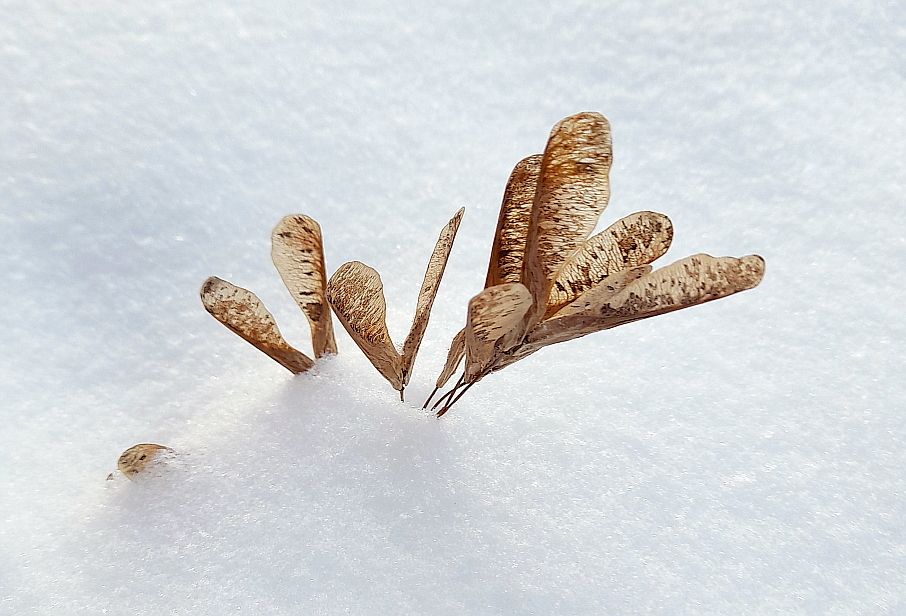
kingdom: Plantae
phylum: Tracheophyta
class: Magnoliopsida
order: Sapindales
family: Sapindaceae
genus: Acer
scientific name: Acer negundo
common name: Ashleaf maple
